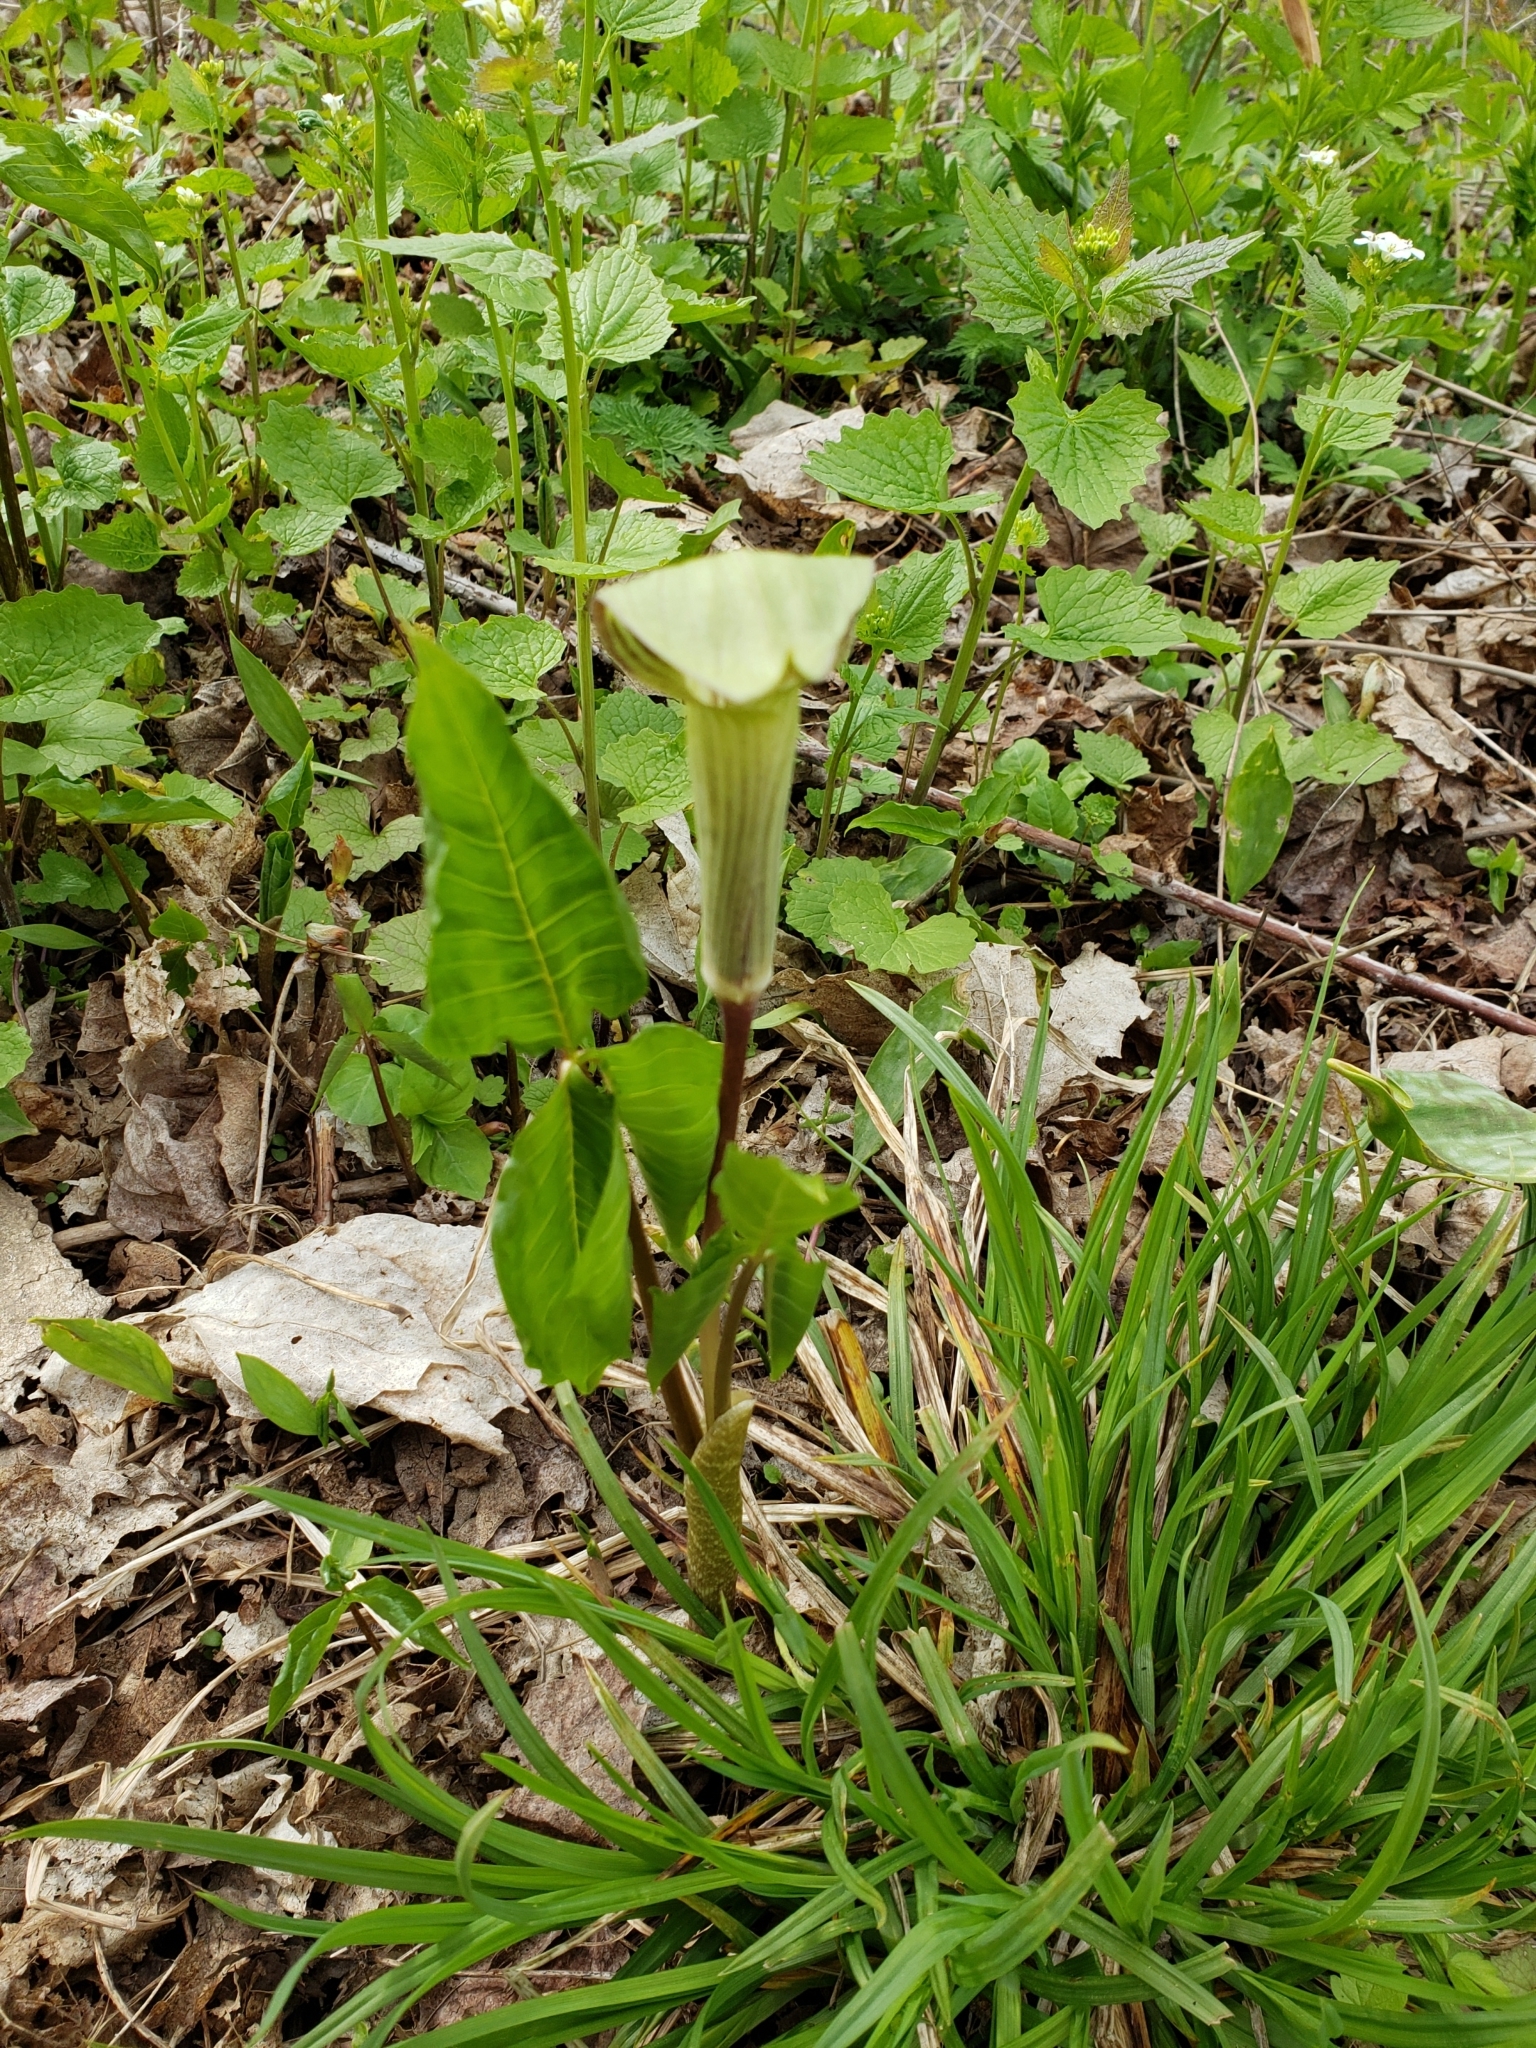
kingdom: Plantae
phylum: Tracheophyta
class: Liliopsida
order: Alismatales
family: Araceae
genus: Arisaema
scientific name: Arisaema triphyllum
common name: Jack-in-the-pulpit
